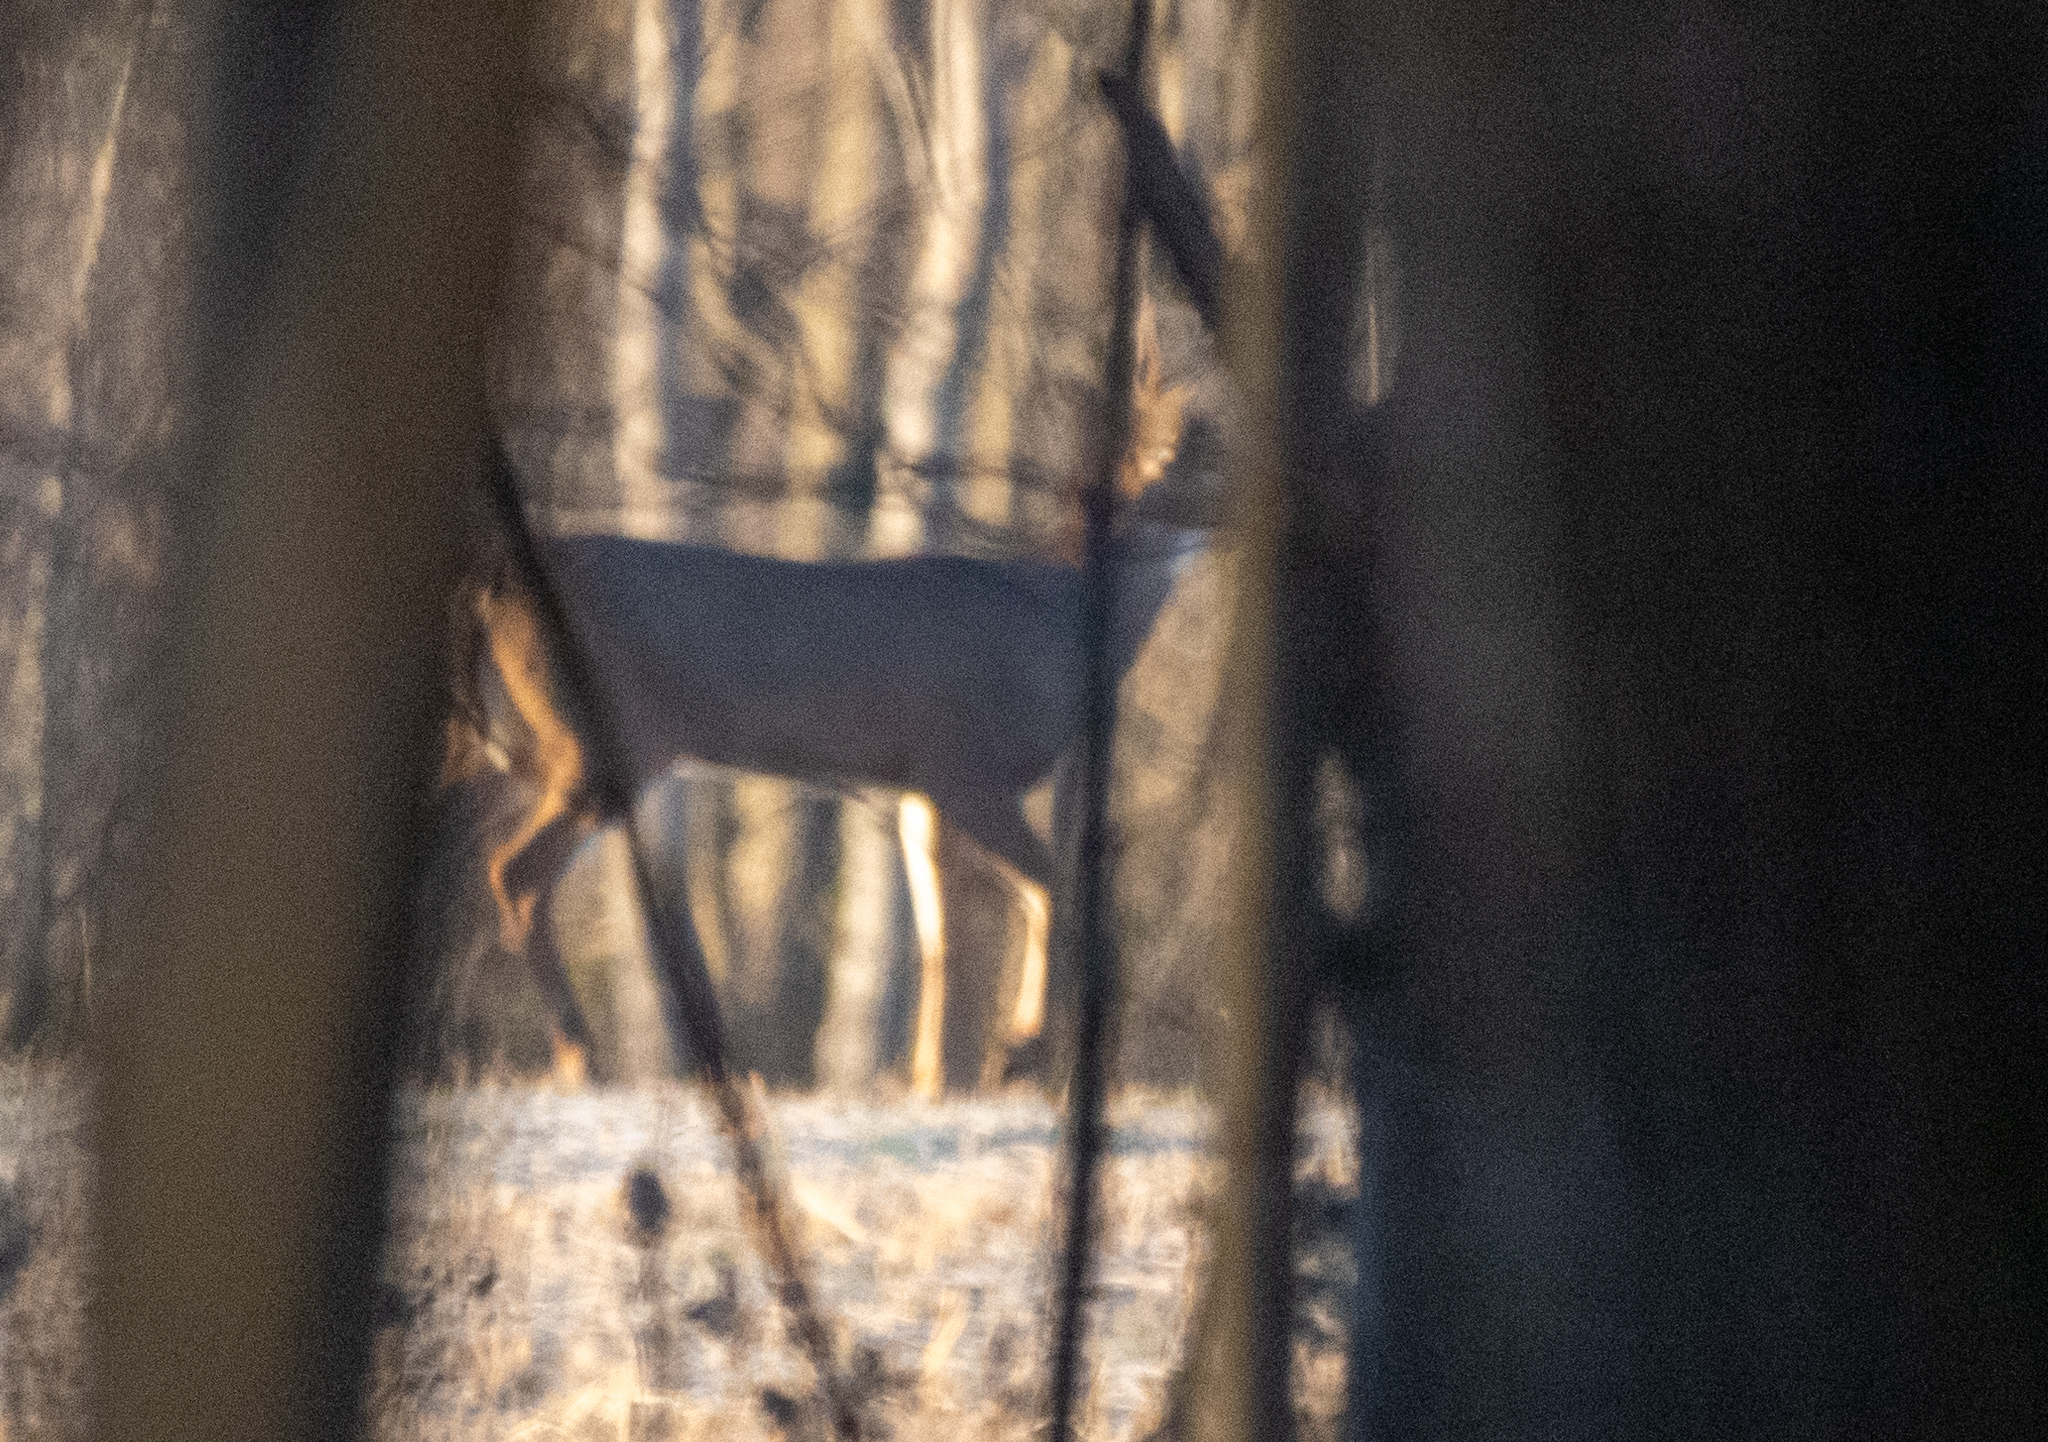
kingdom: Animalia
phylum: Chordata
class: Mammalia
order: Artiodactyla
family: Cervidae
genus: Odocoileus
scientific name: Odocoileus virginianus
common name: White-tailed deer
